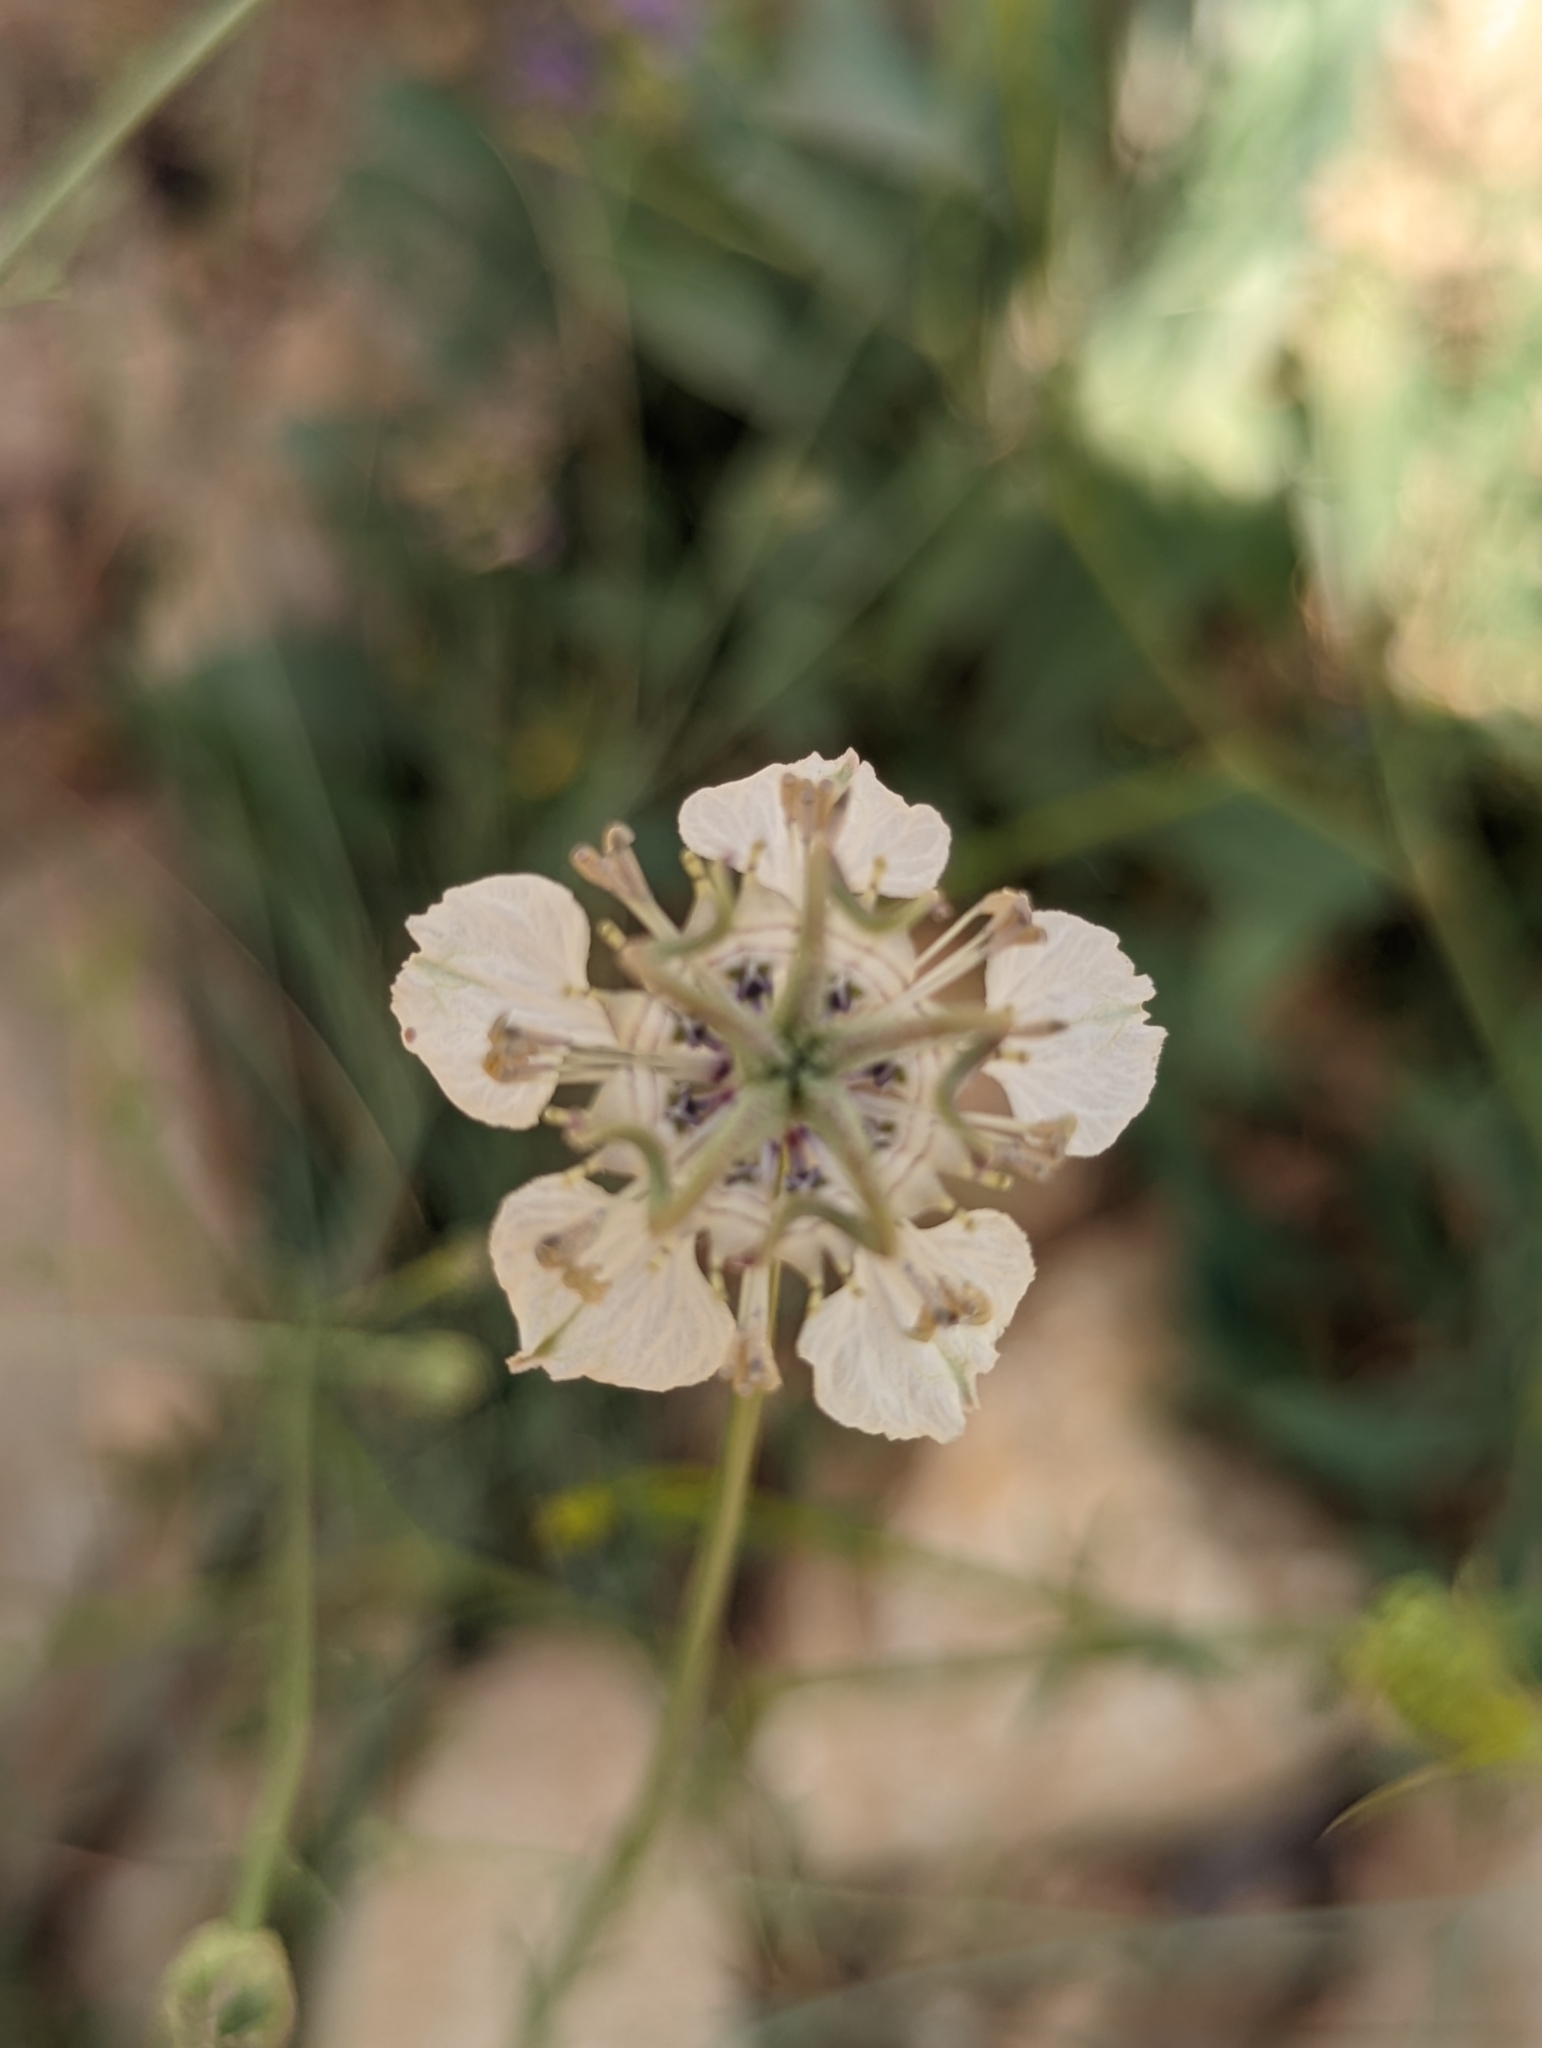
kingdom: Plantae
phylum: Tracheophyta
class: Magnoliopsida
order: Ranunculales
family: Ranunculaceae
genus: Nigella
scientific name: Nigella arvensis
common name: Wild fennel-flower
